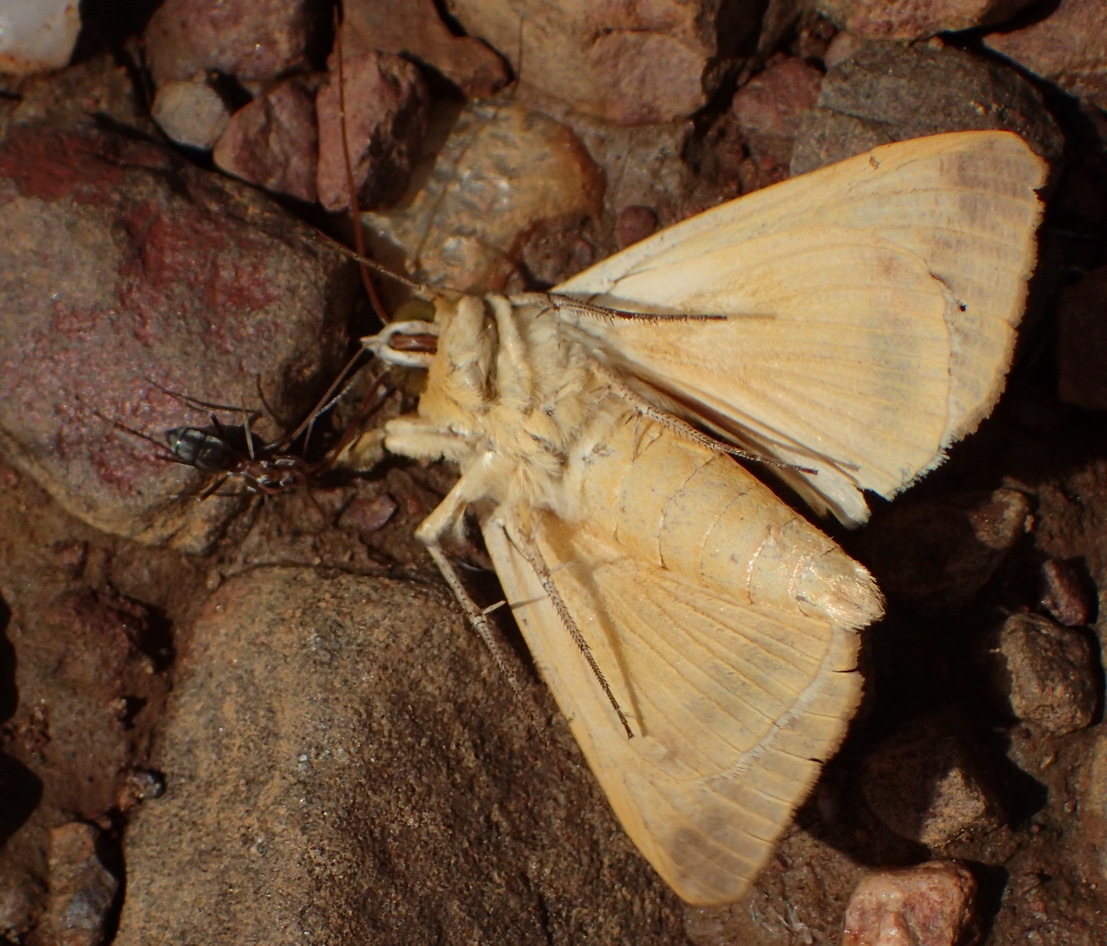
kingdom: Animalia
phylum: Arthropoda
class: Insecta
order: Lepidoptera
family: Erebidae
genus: Ophiusa
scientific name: Ophiusa tirhaca
